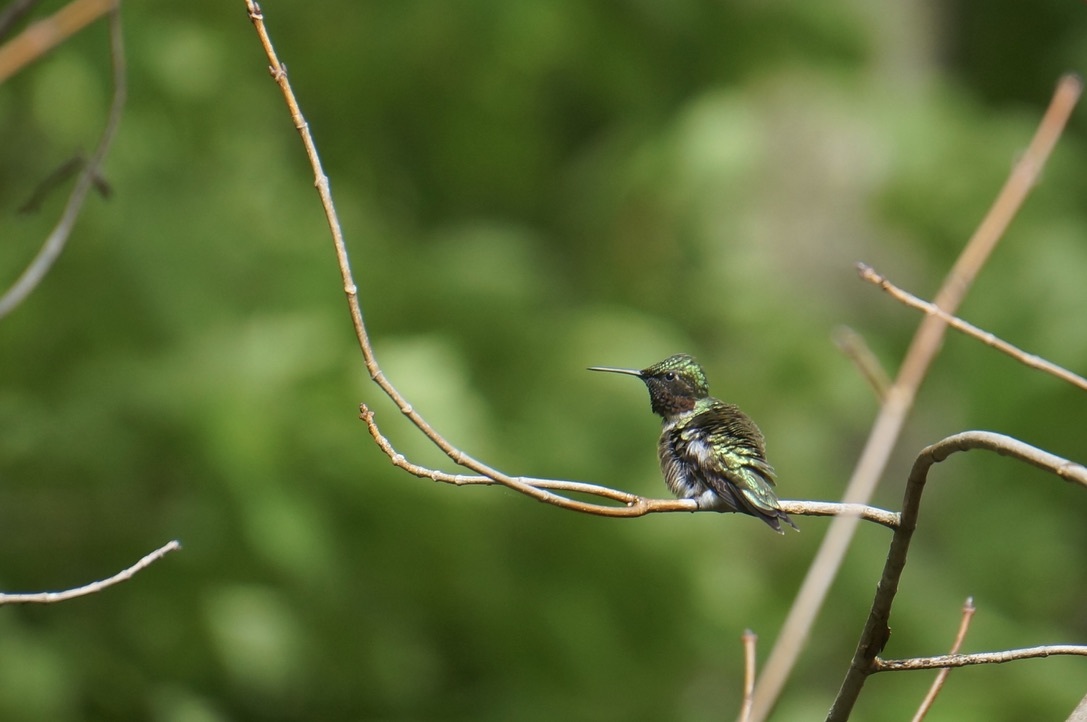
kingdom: Animalia
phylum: Chordata
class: Aves
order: Apodiformes
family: Trochilidae
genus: Archilochus
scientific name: Archilochus colubris
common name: Ruby-throated hummingbird
